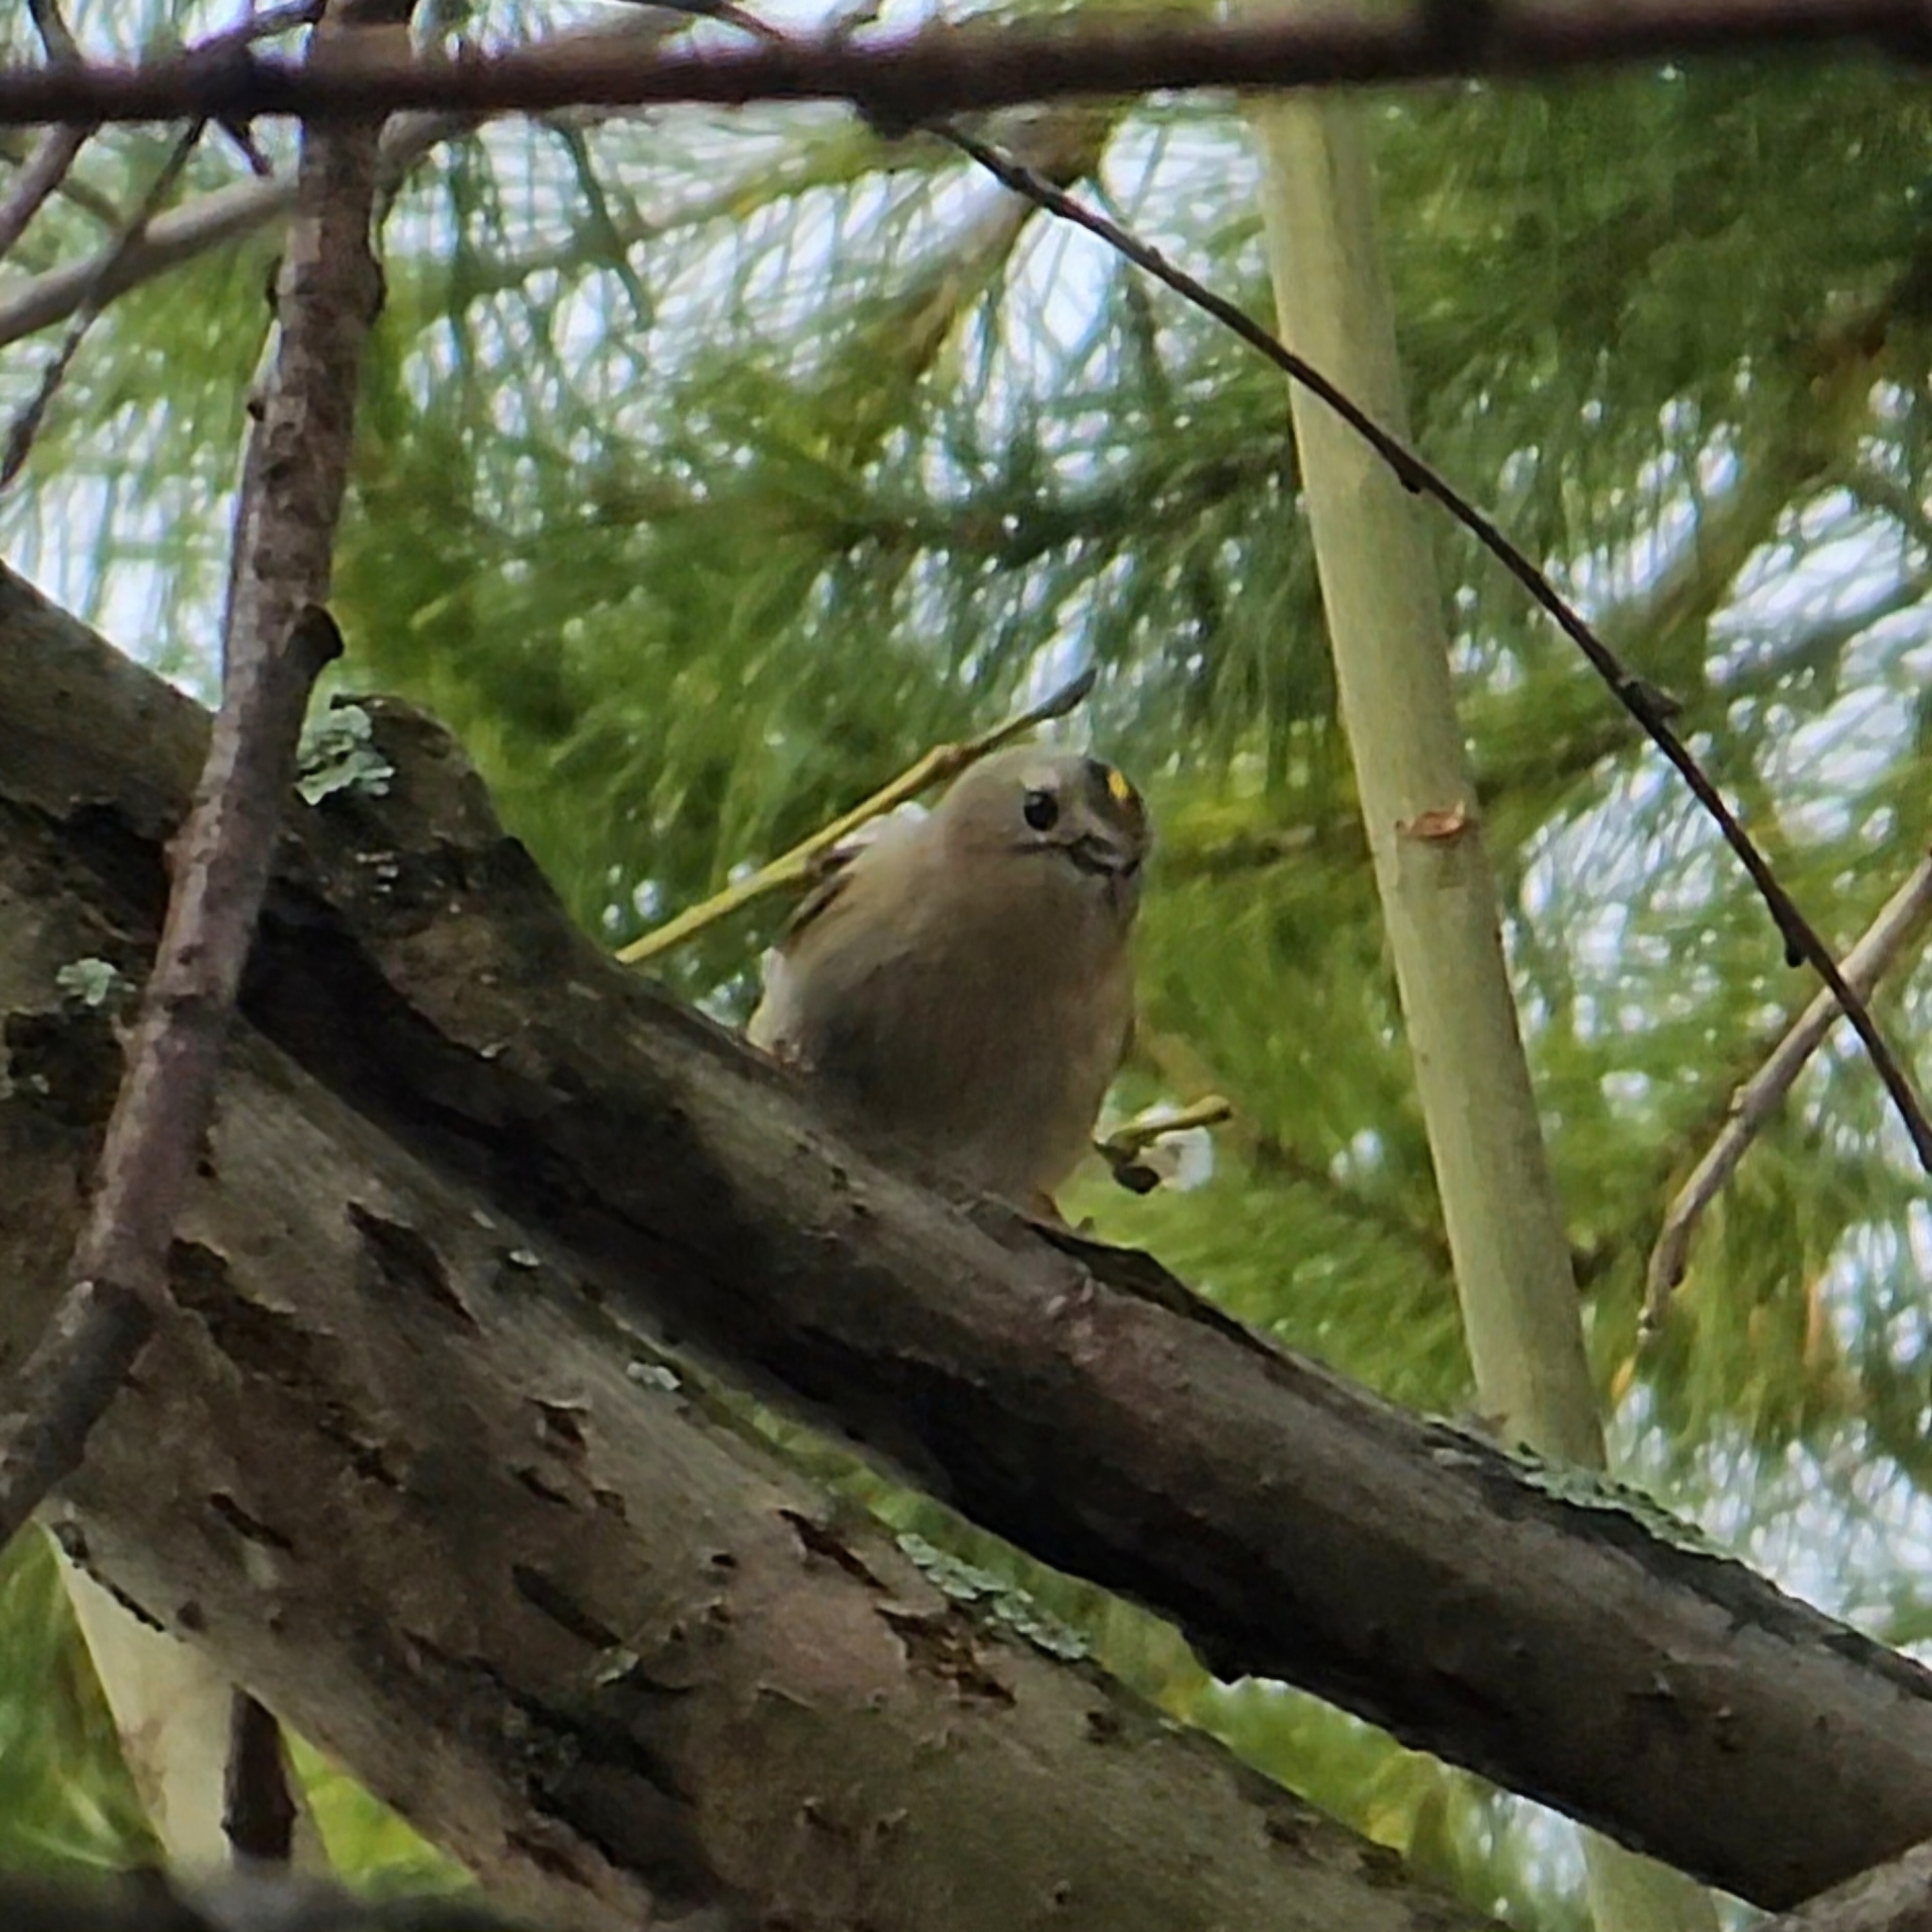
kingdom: Animalia
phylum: Chordata
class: Aves
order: Passeriformes
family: Regulidae
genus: Regulus
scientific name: Regulus regulus
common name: Goldcrest
